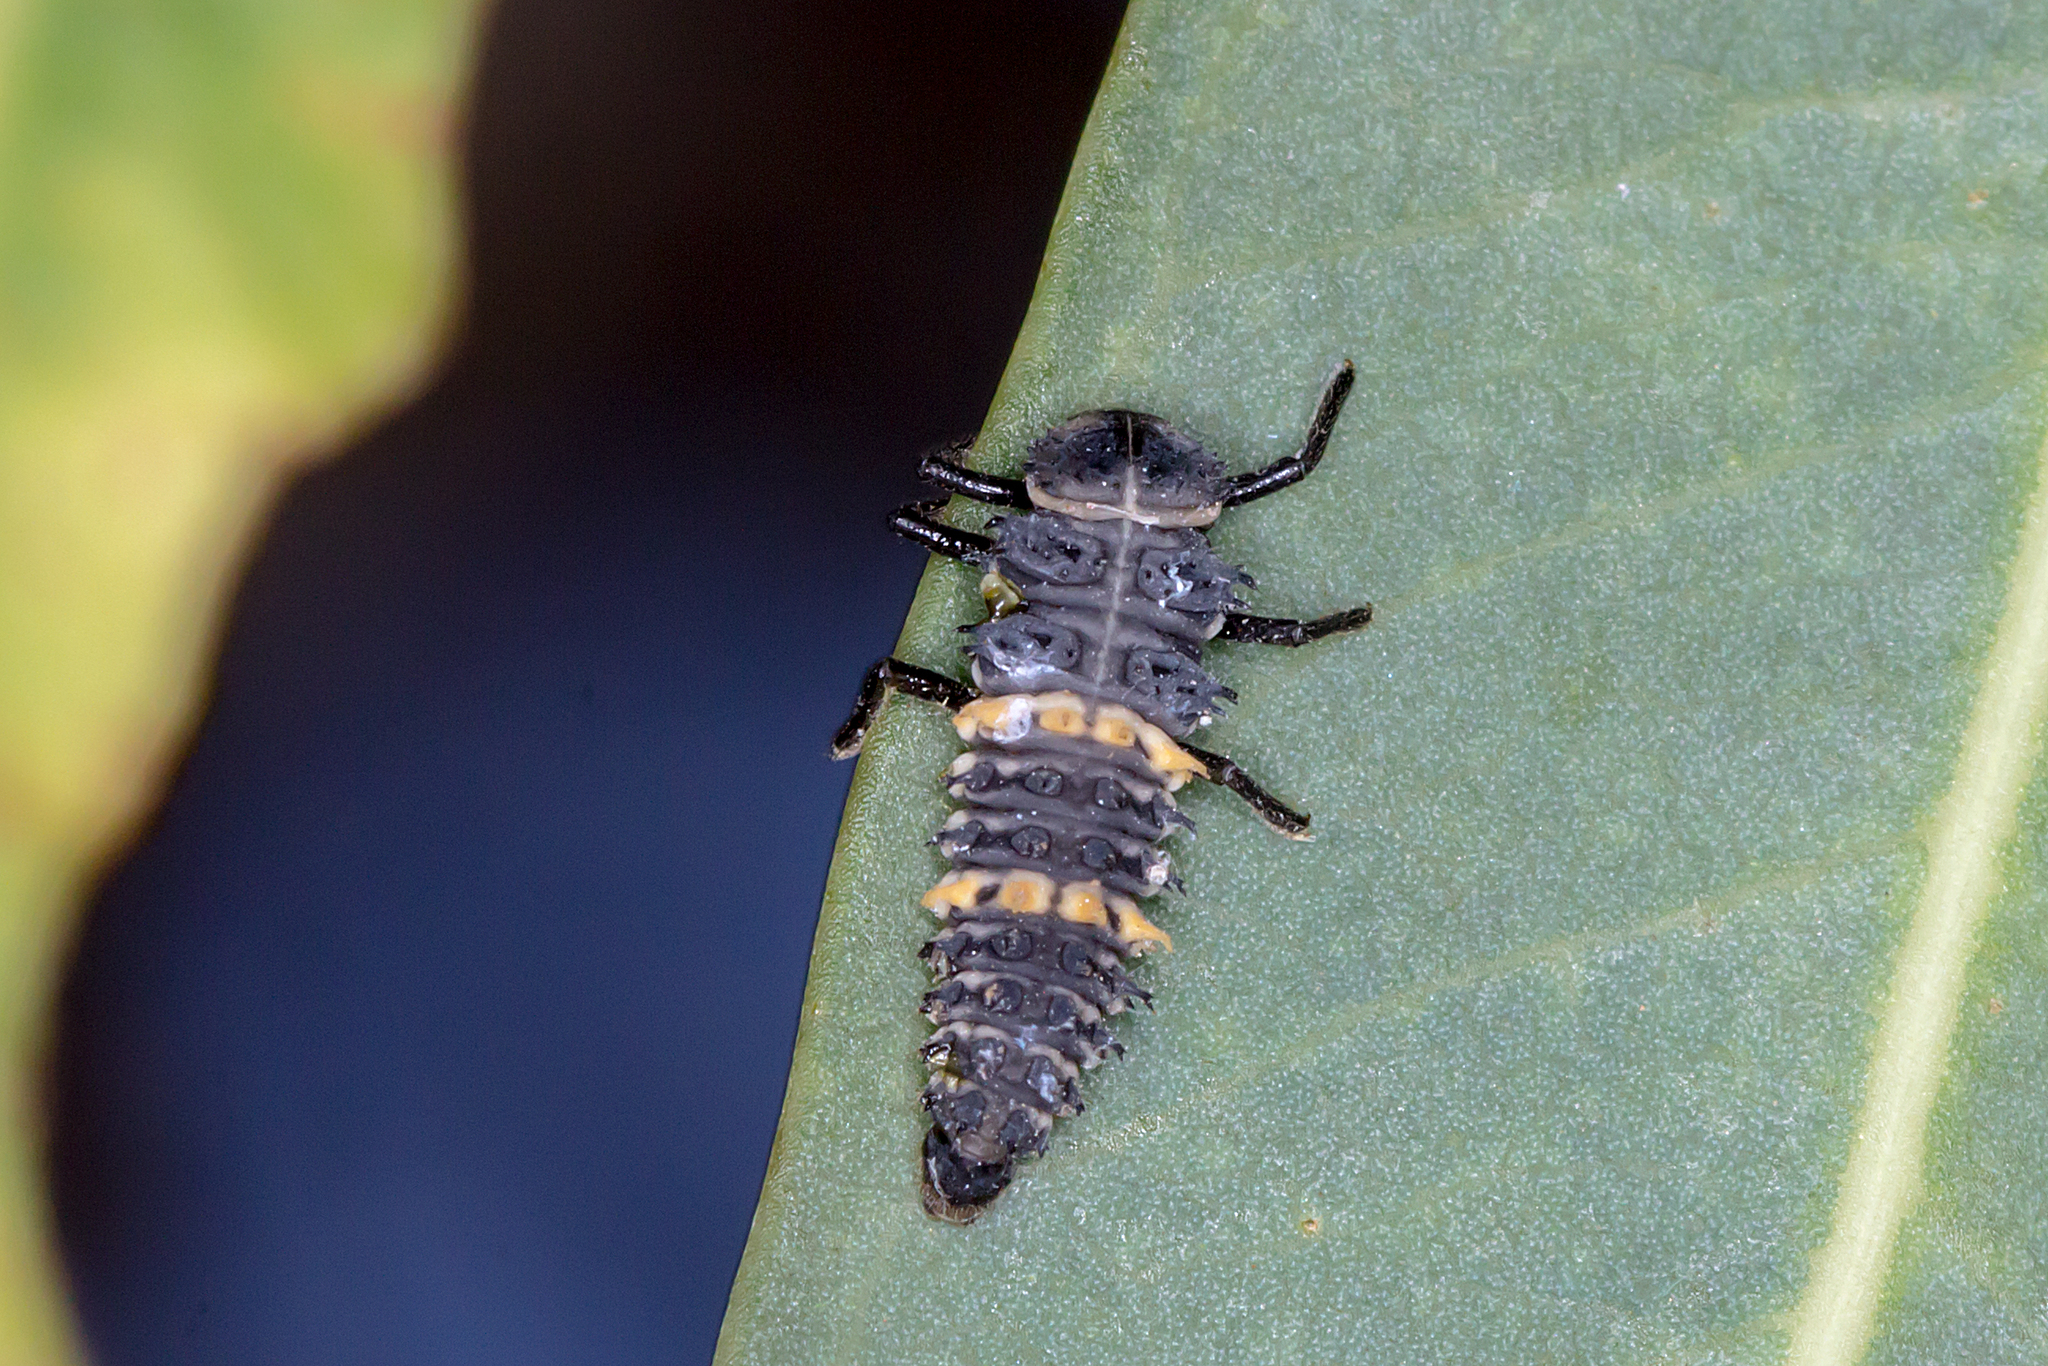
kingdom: Animalia
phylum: Arthropoda
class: Insecta
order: Coleoptera
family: Coccinellidae
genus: Harmonia
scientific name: Harmonia conformis
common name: Common spotted ladybird beetle
